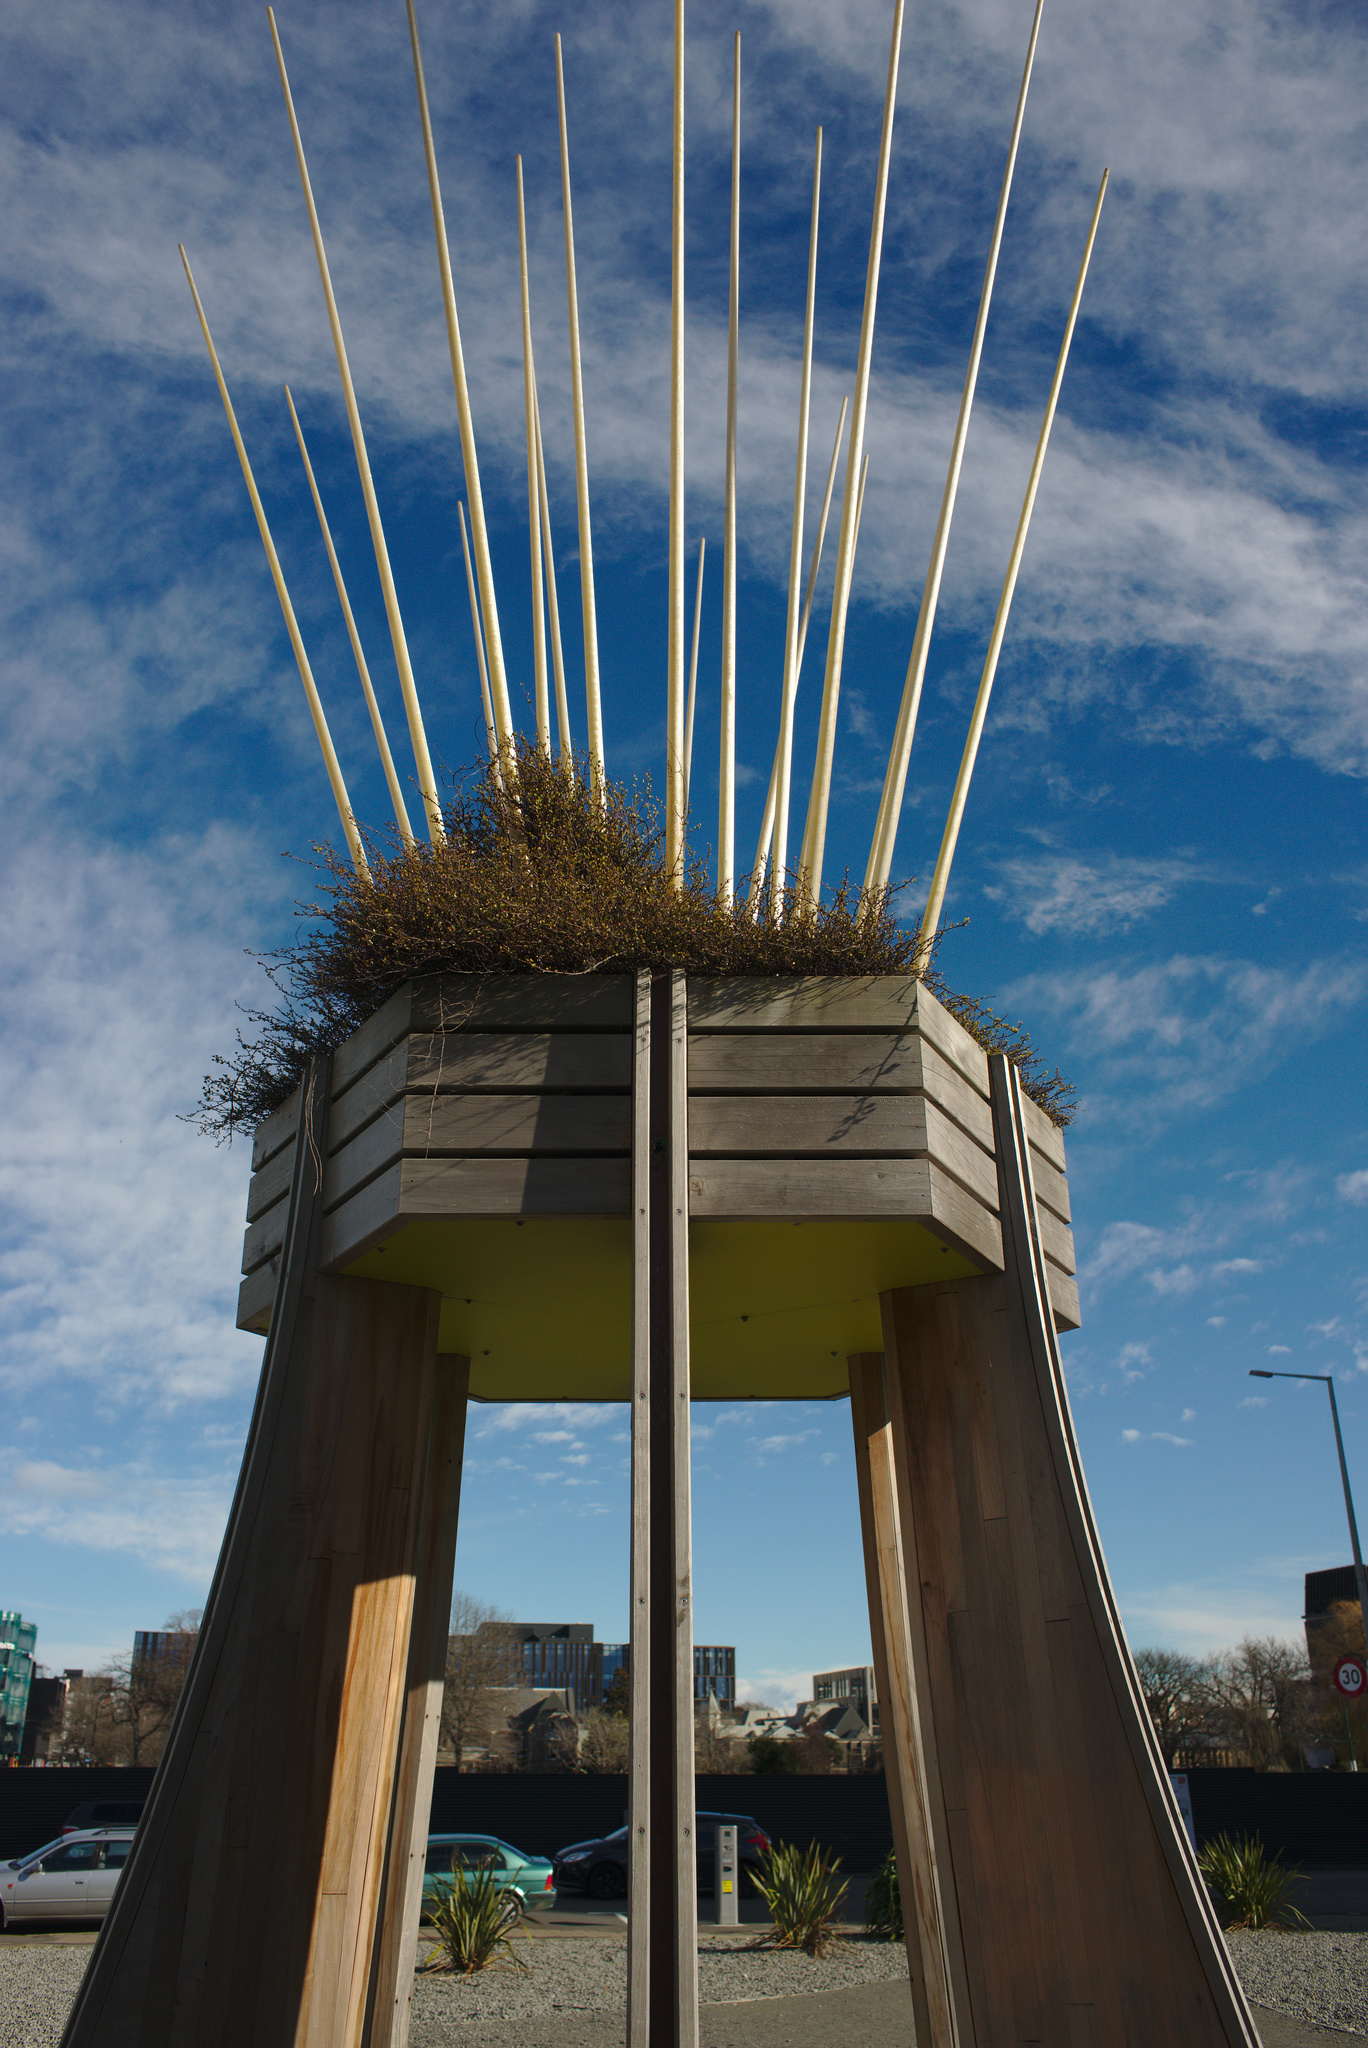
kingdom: Plantae
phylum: Tracheophyta
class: Magnoliopsida
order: Caryophyllales
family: Polygonaceae
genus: Muehlenbeckia
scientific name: Muehlenbeckia axillaris
